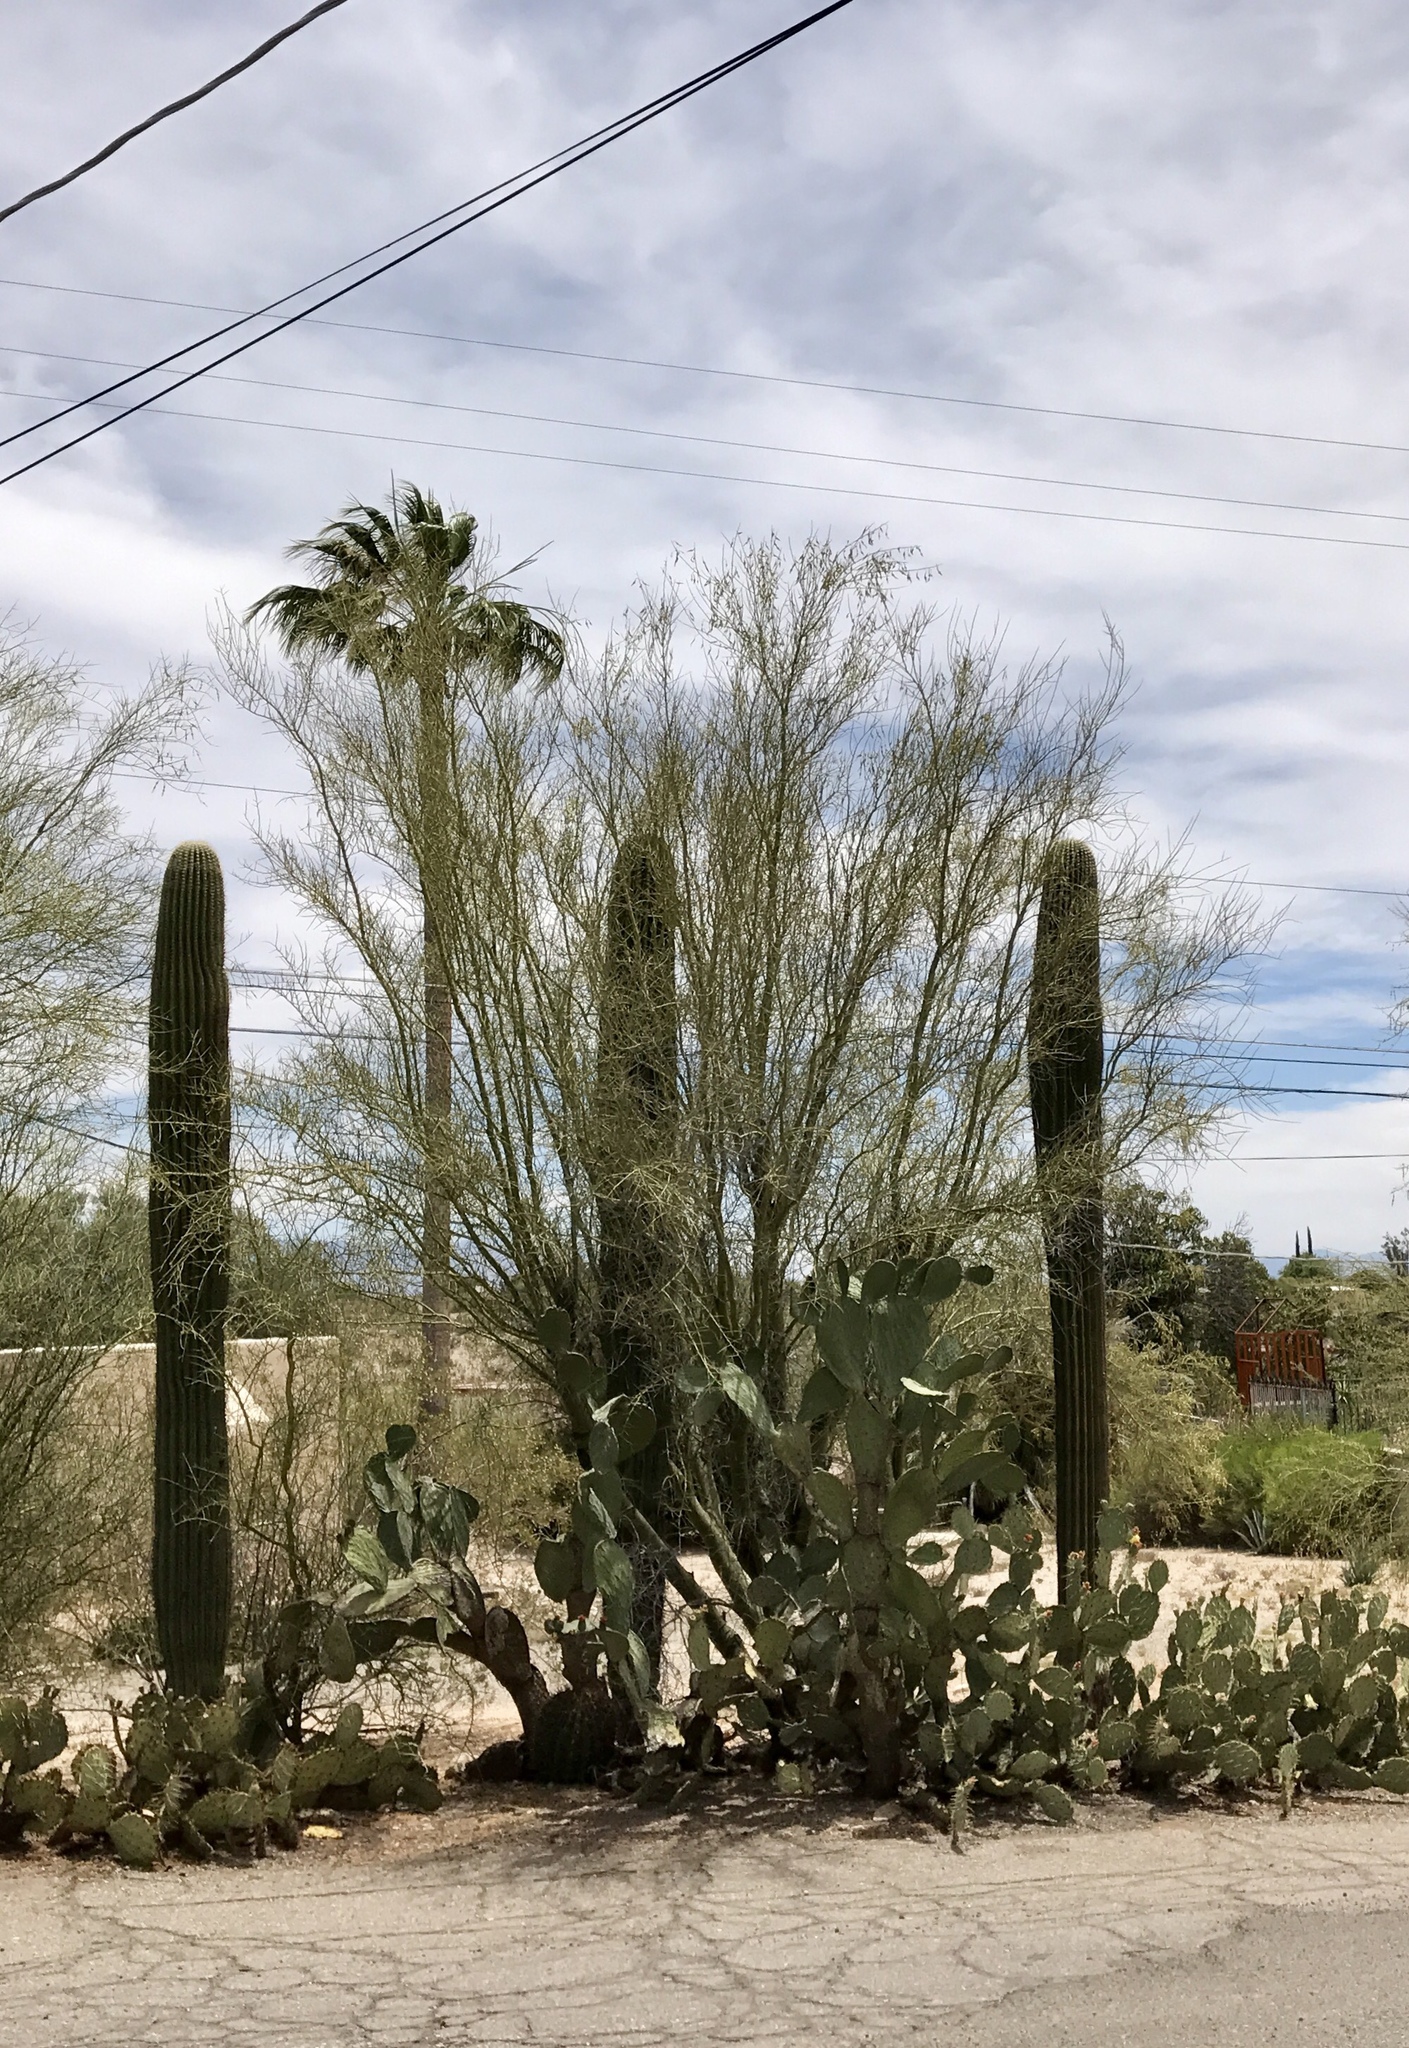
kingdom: Plantae
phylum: Tracheophyta
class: Magnoliopsida
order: Fabales
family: Fabaceae
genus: Parkinsonia
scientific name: Parkinsonia aculeata
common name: Jerusalem thorn
